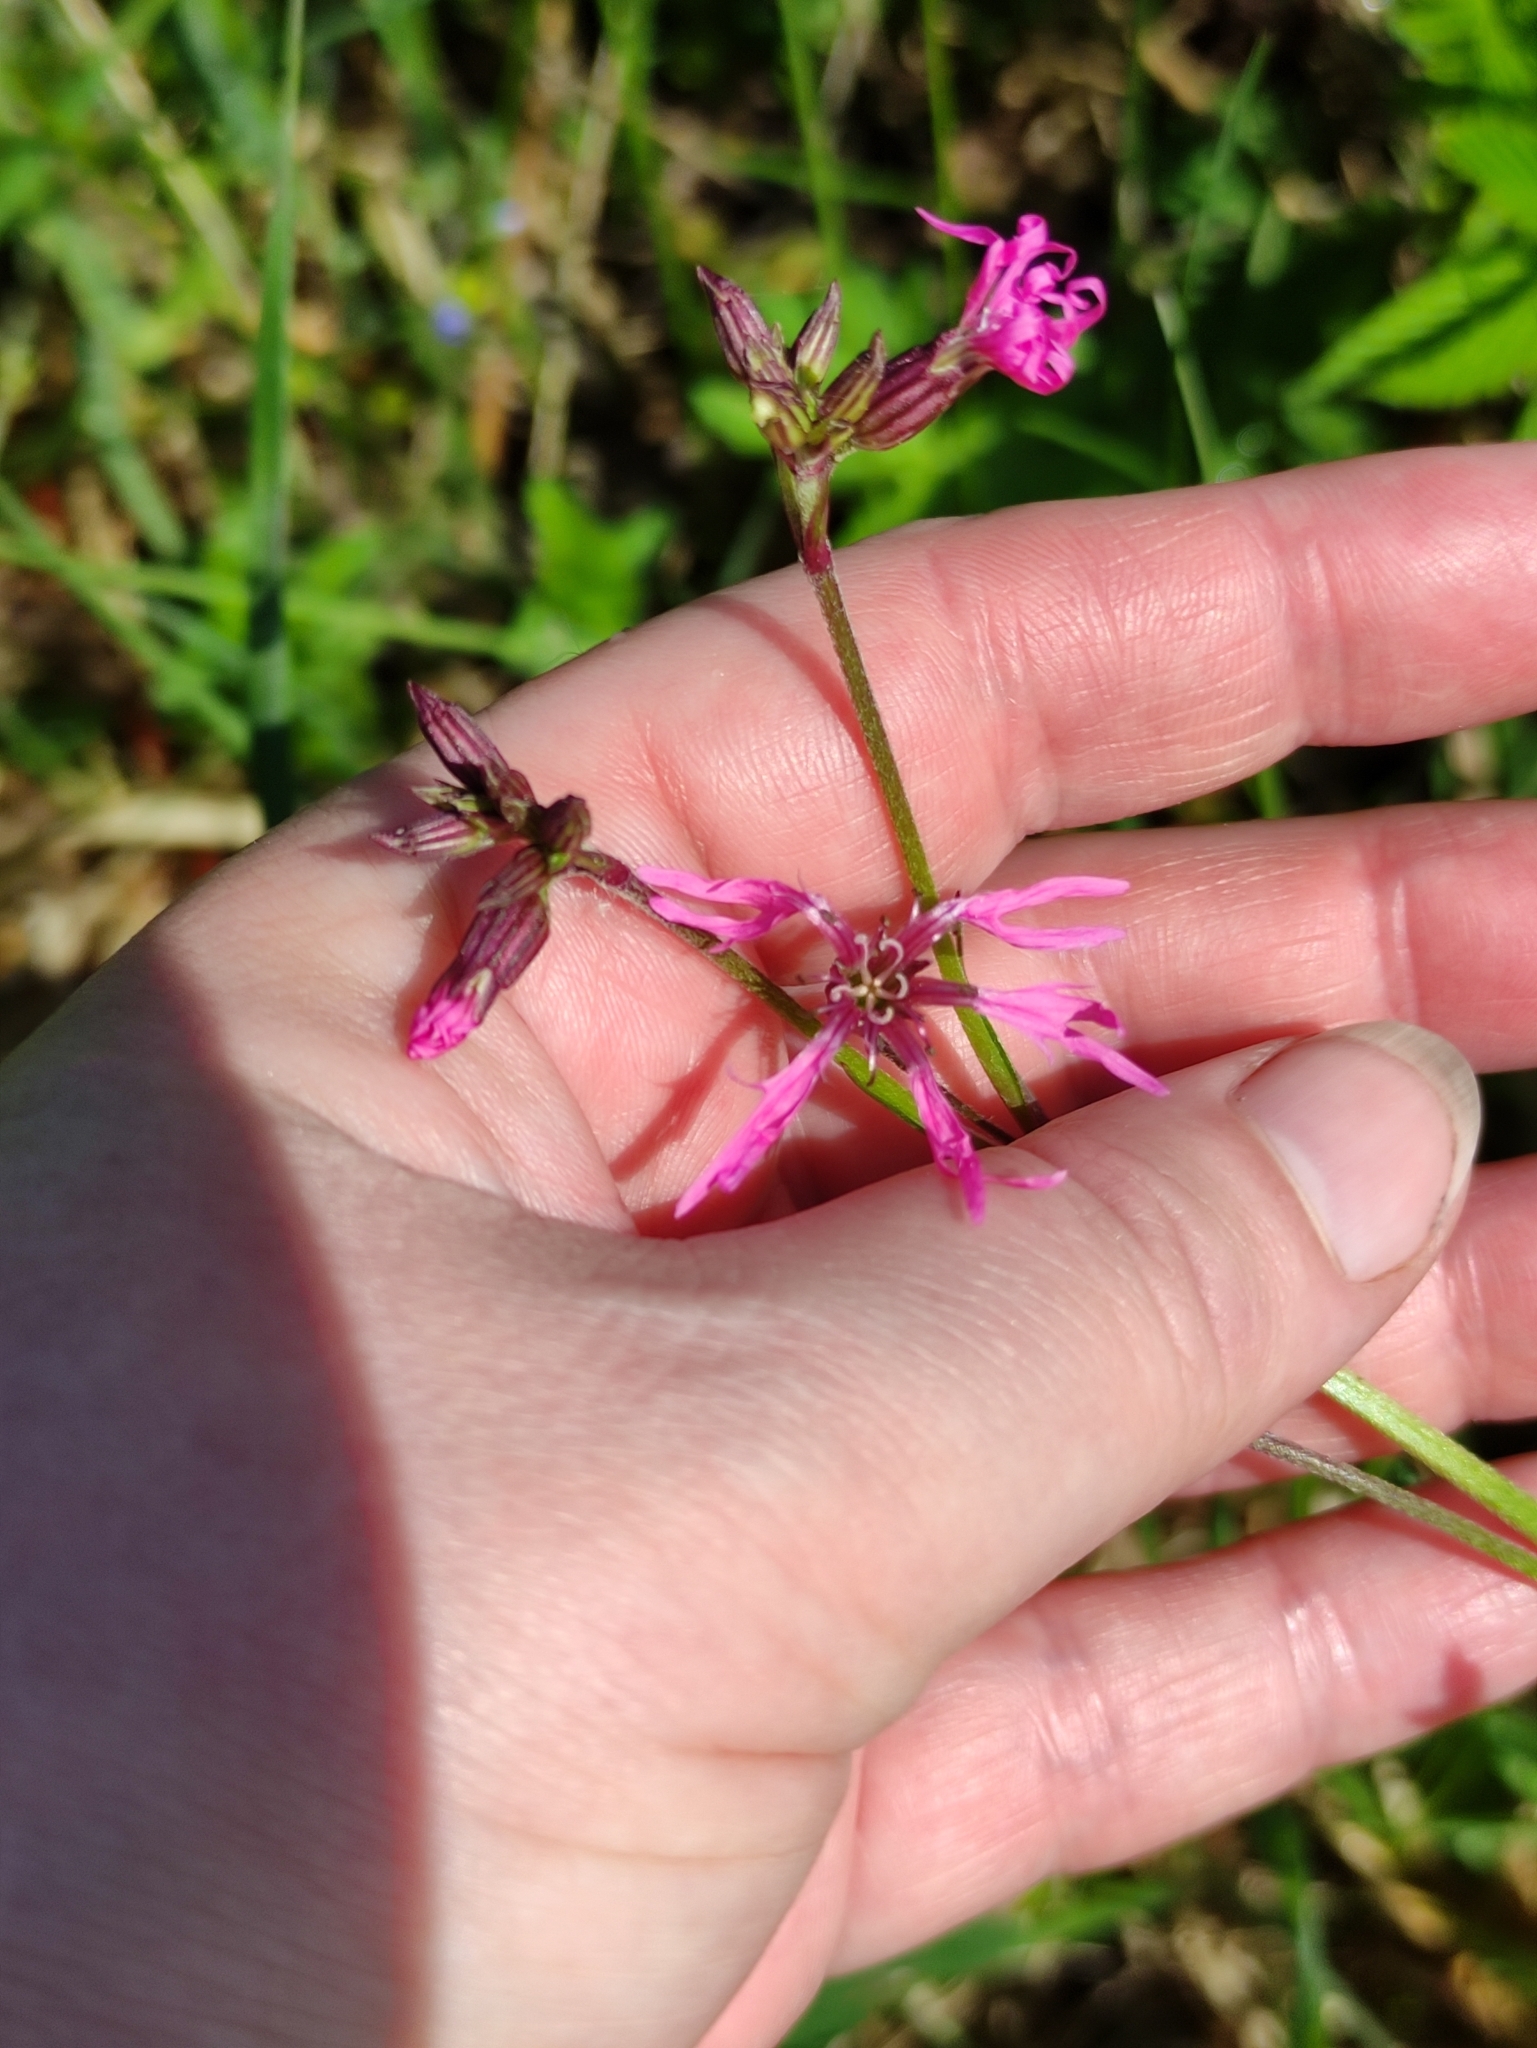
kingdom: Plantae
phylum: Tracheophyta
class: Magnoliopsida
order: Caryophyllales
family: Caryophyllaceae
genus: Silene
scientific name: Silene flos-cuculi
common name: Ragged-robin
